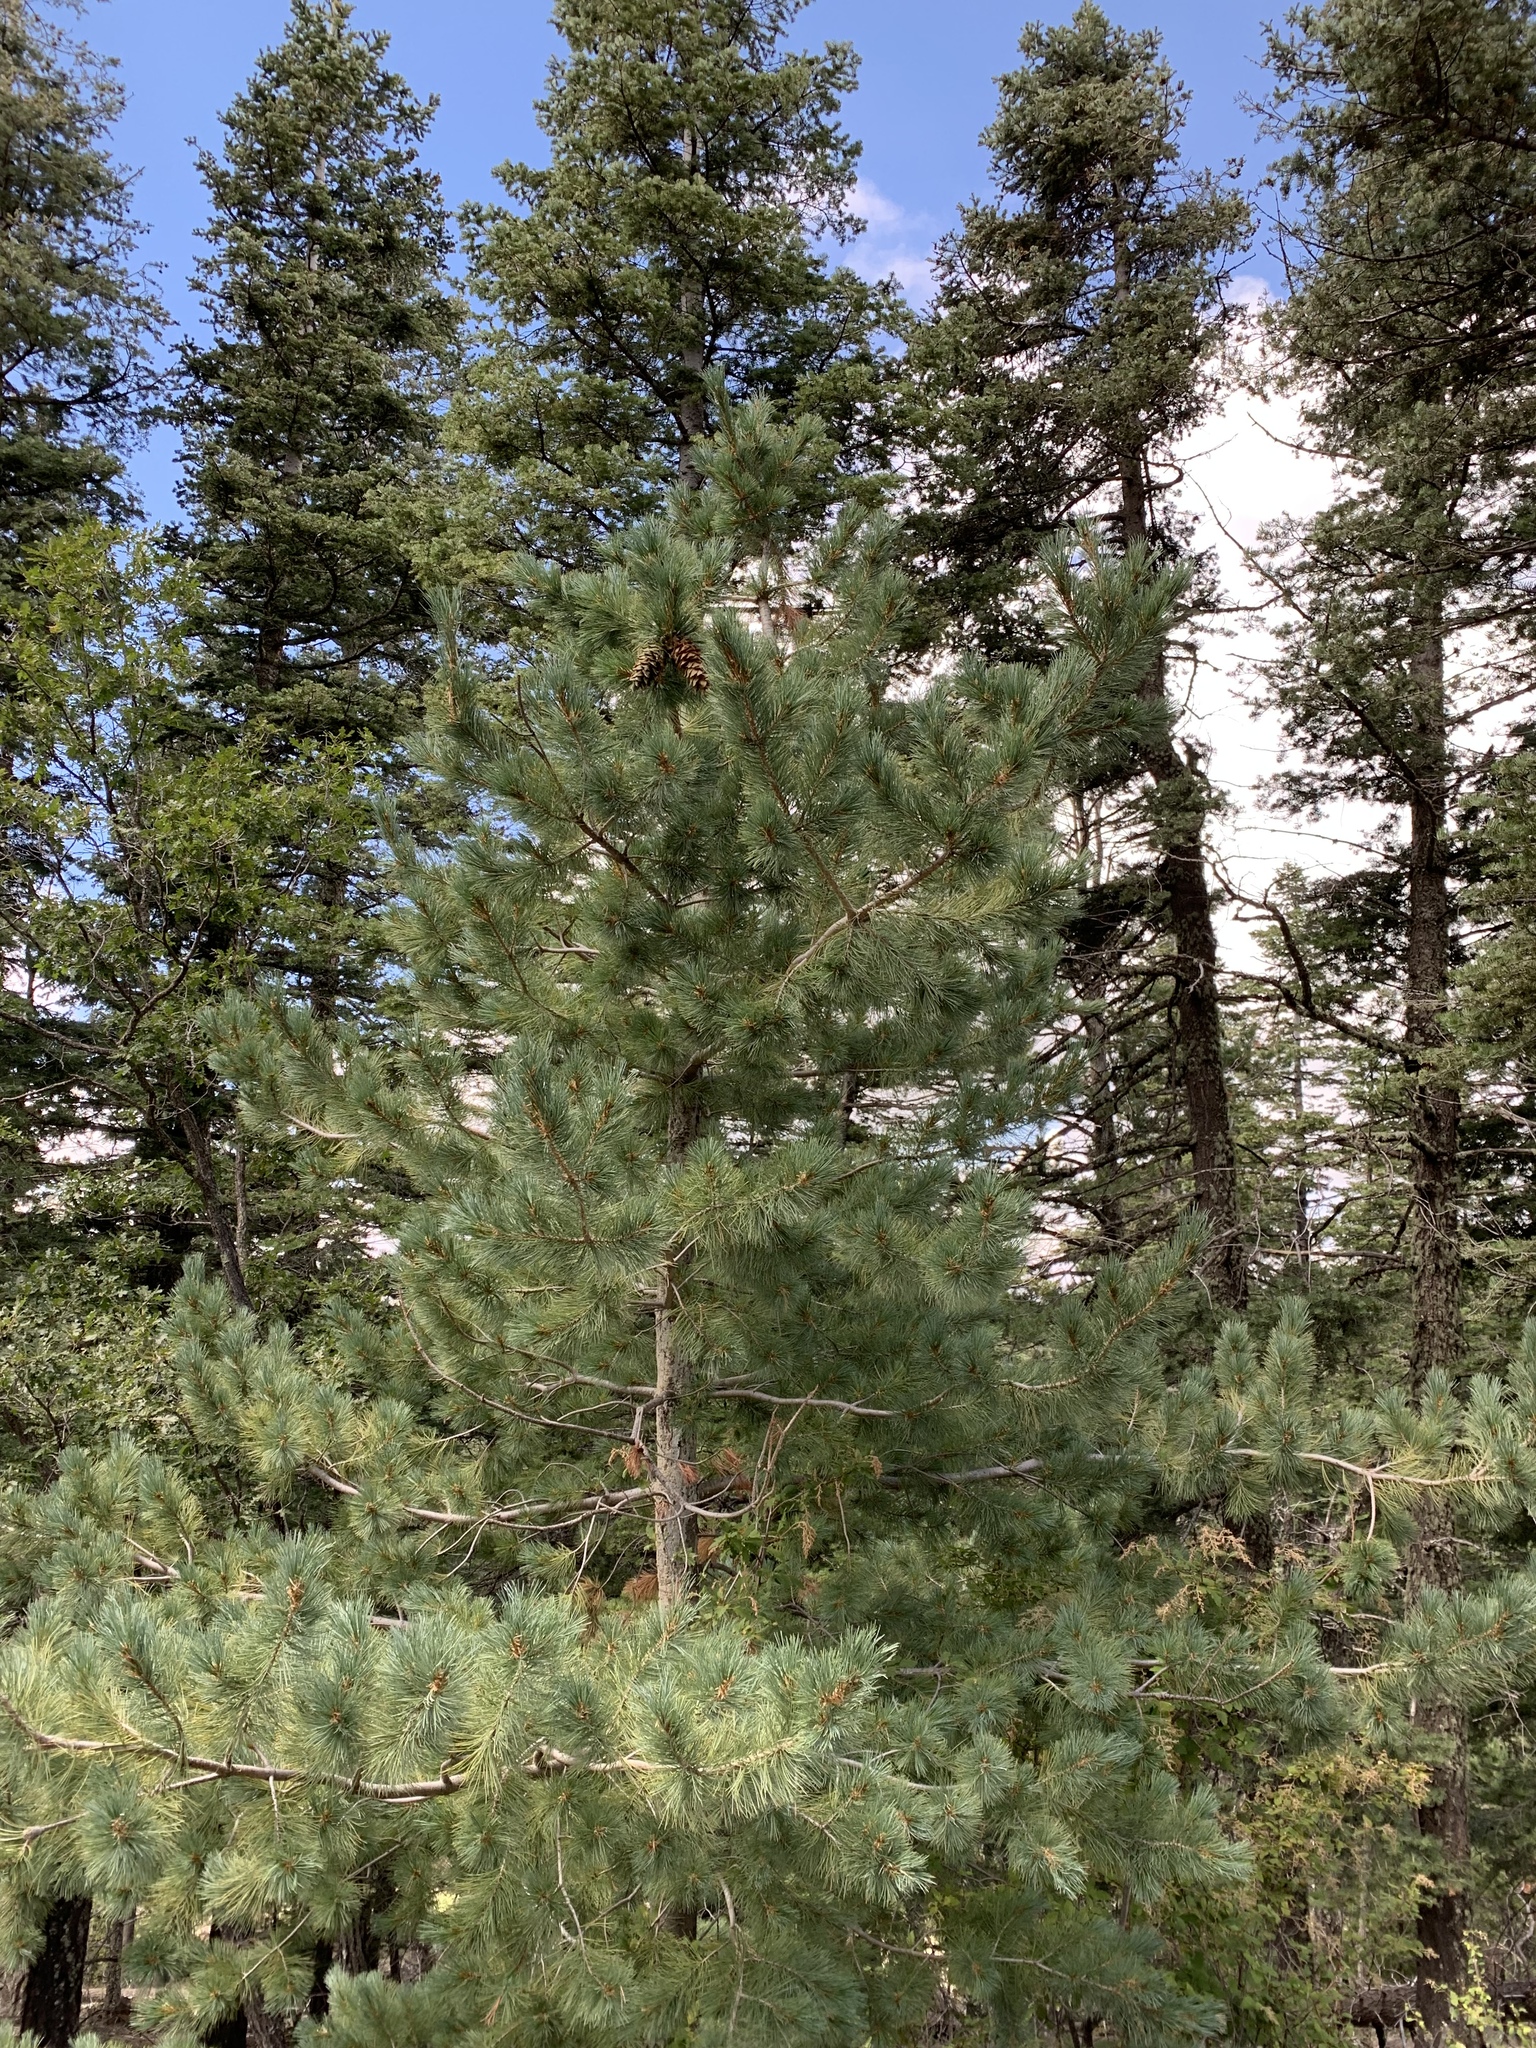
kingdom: Plantae
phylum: Tracheophyta
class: Pinopsida
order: Pinales
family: Pinaceae
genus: Pinus
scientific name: Pinus strobiformis
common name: Southwestern white pine
